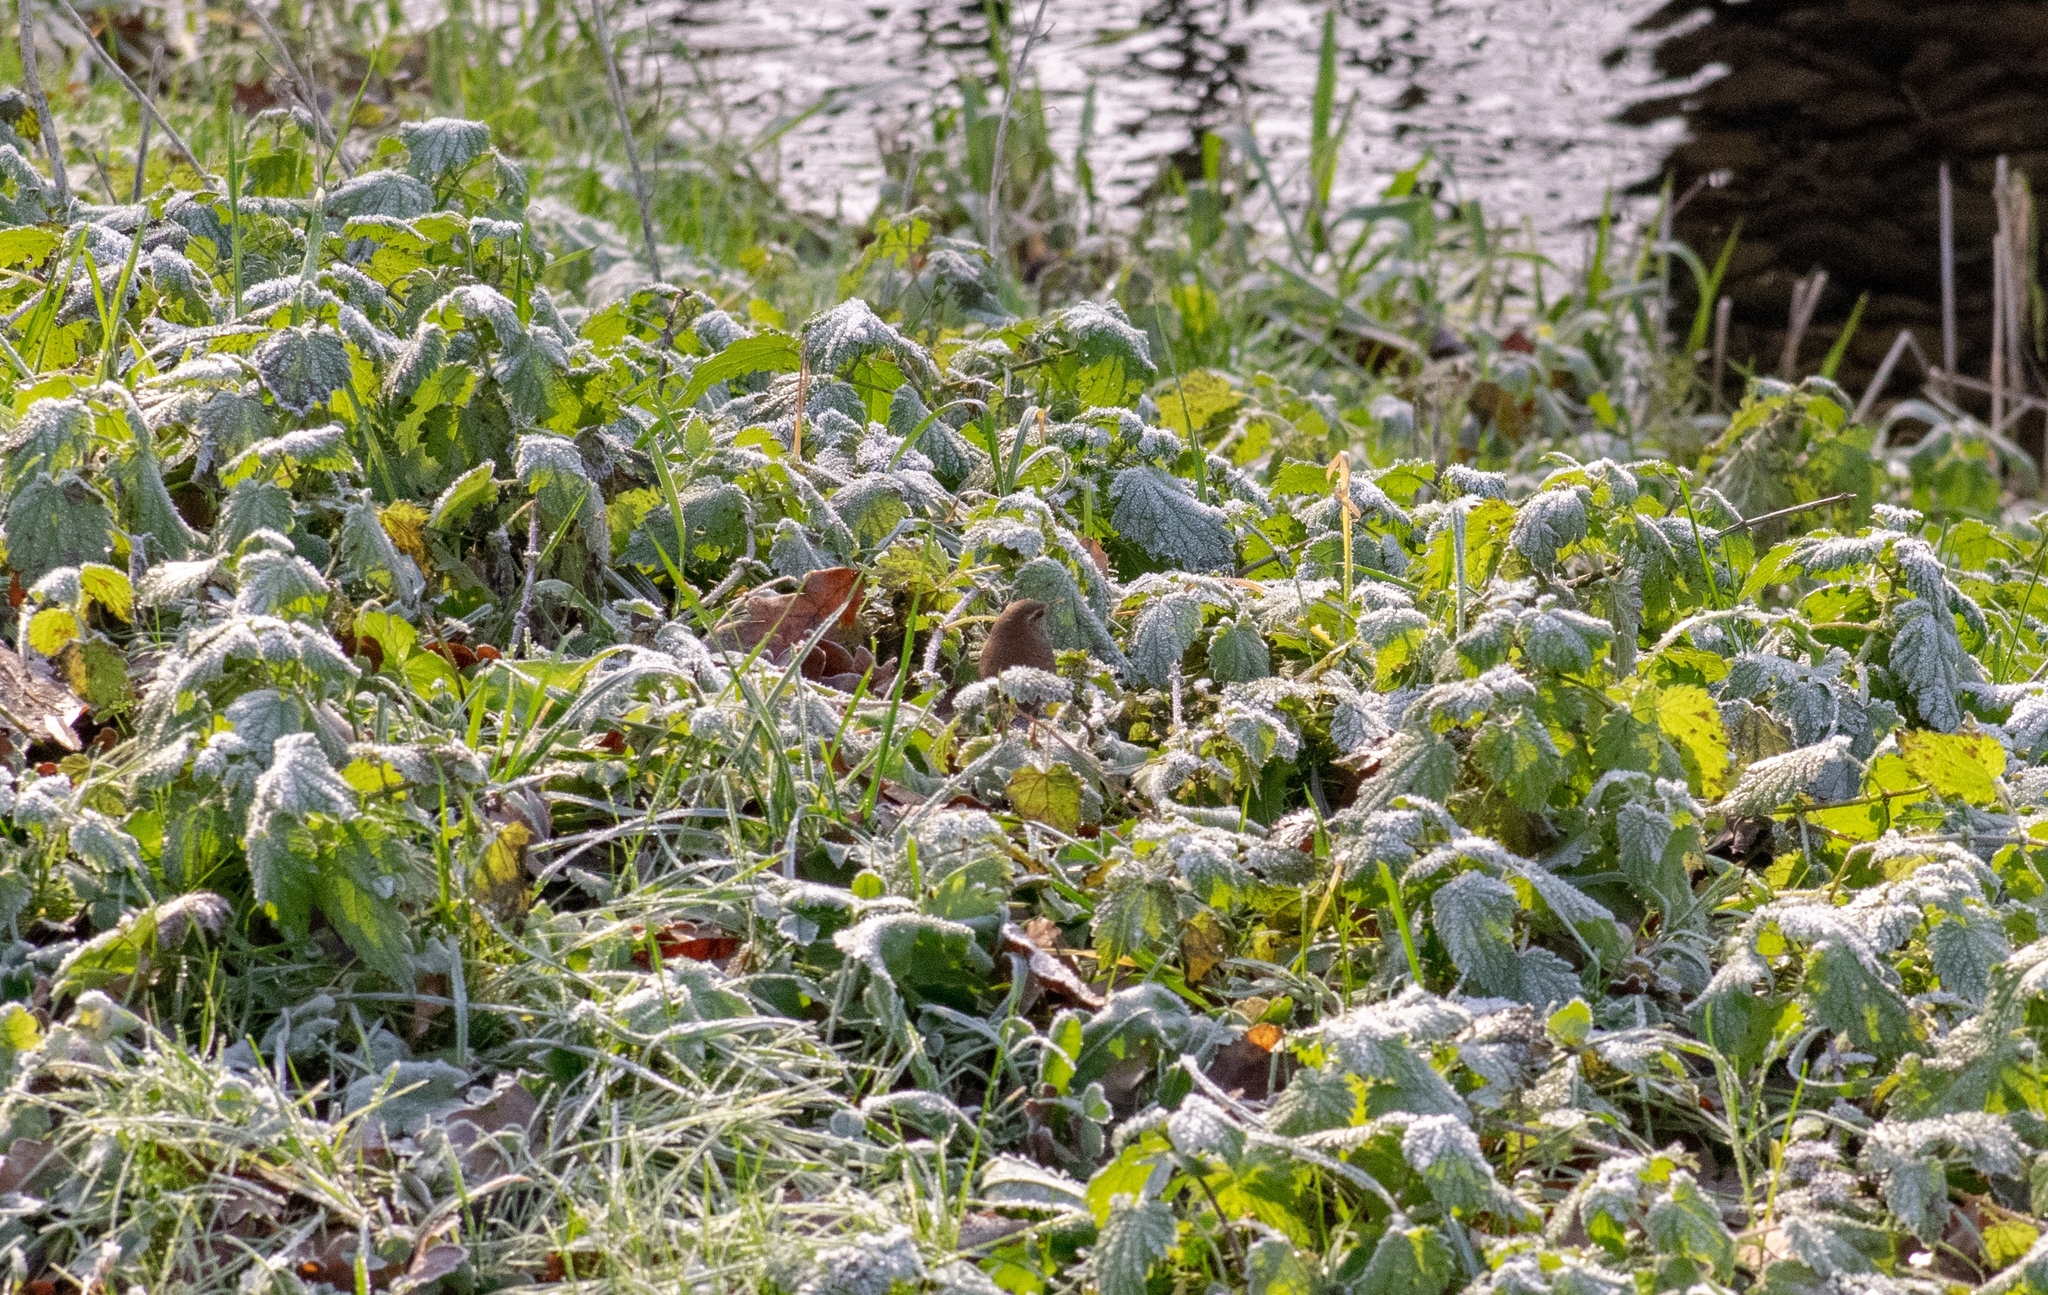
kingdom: Animalia
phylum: Chordata
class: Aves
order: Passeriformes
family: Troglodytidae
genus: Troglodytes
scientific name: Troglodytes troglodytes
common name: Eurasian wren
